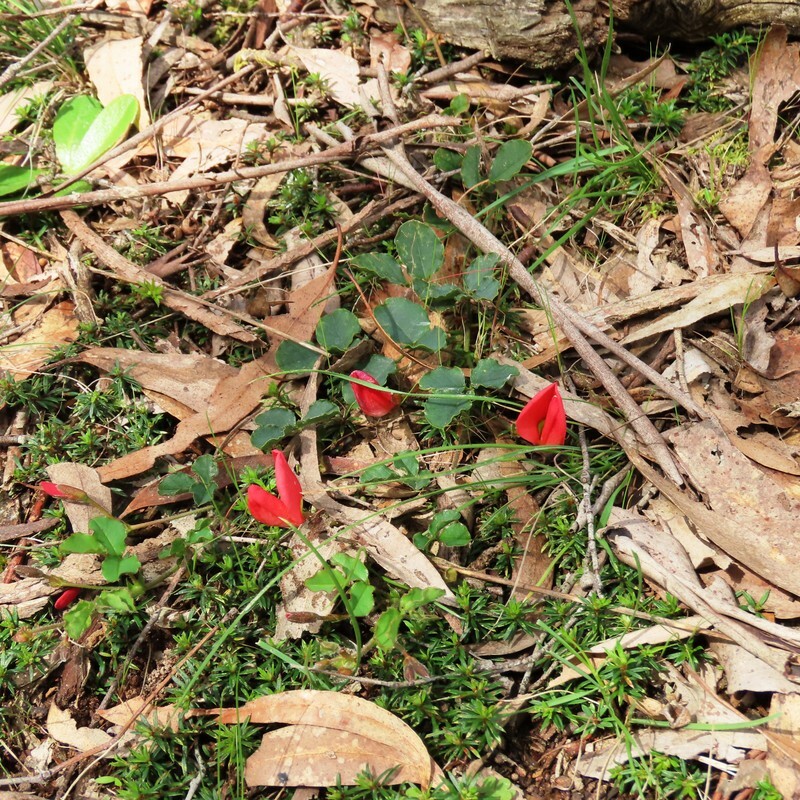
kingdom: Plantae
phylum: Tracheophyta
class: Magnoliopsida
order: Fabales
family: Fabaceae
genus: Kennedia
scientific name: Kennedia prostrata
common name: Running-postman
